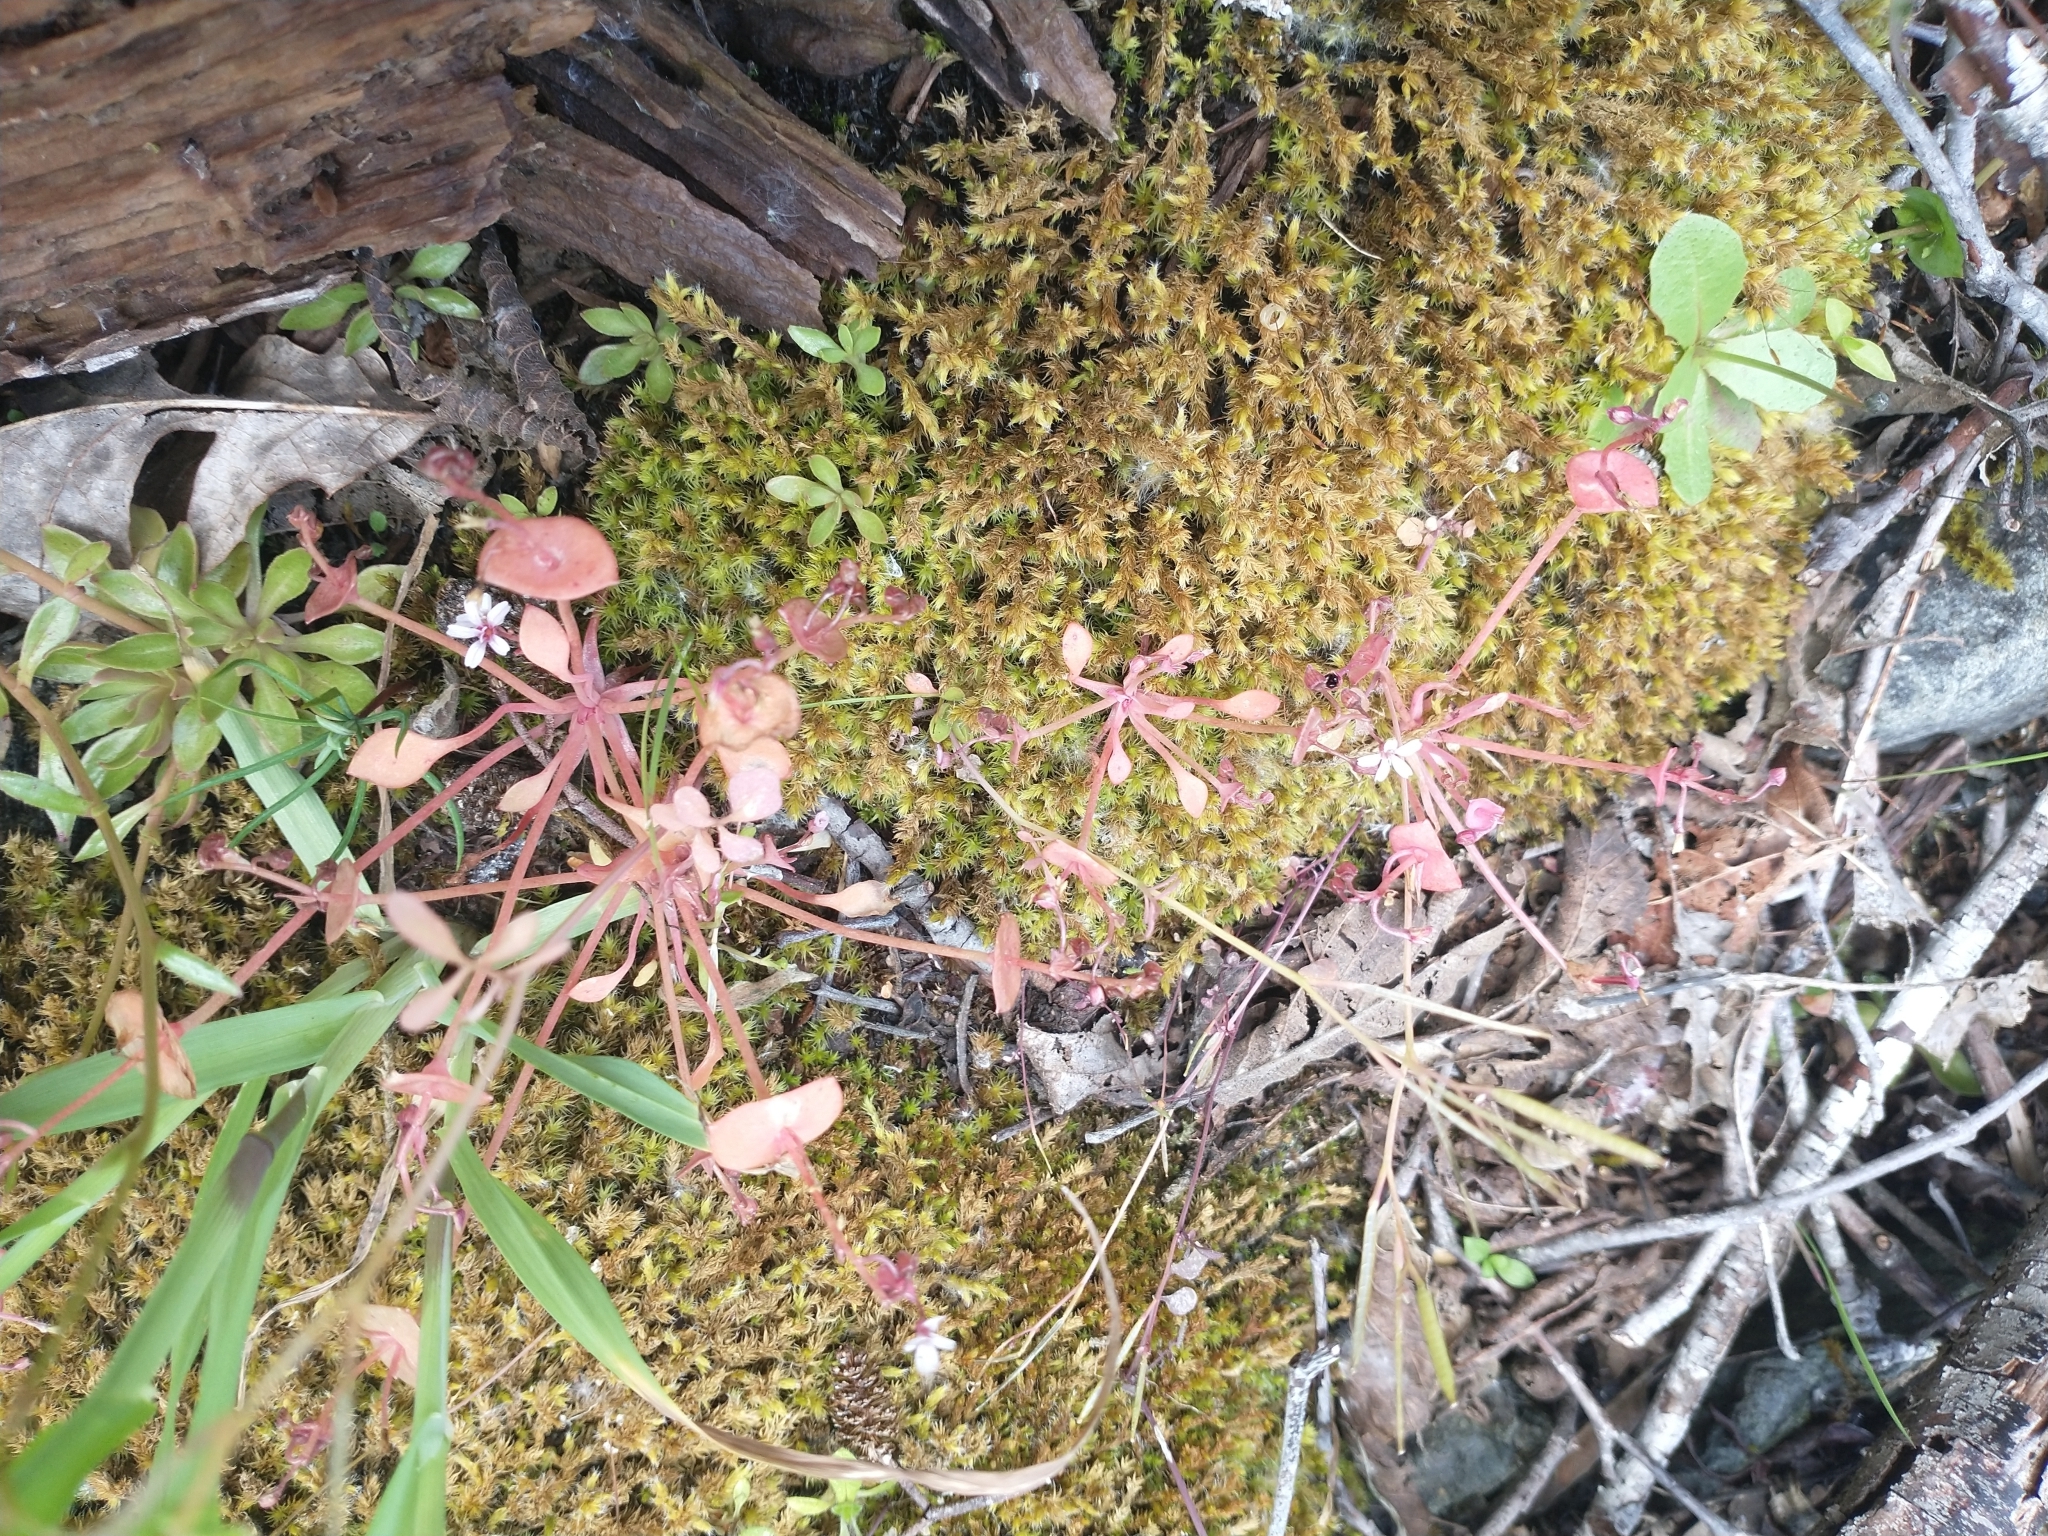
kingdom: Plantae
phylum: Tracheophyta
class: Magnoliopsida
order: Caryophyllales
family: Montiaceae
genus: Claytonia
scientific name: Claytonia rubra
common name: Erubescent miner's-lettuce
